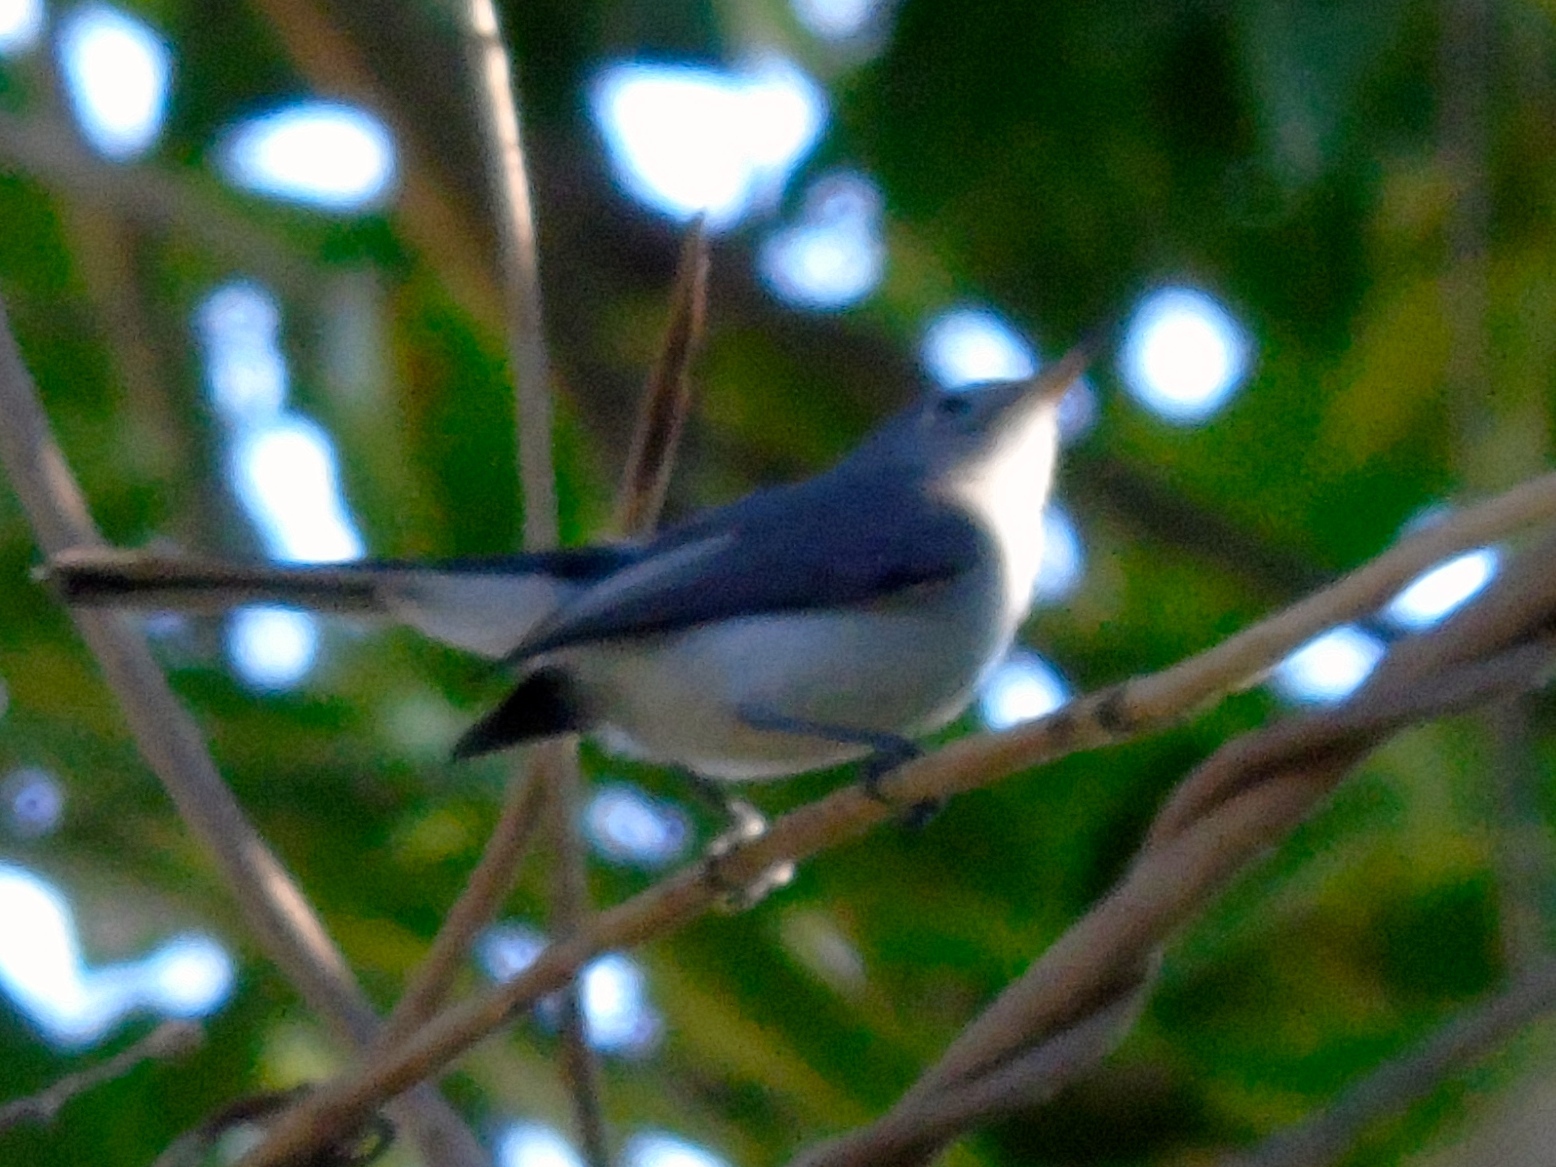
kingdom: Animalia
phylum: Chordata
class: Aves
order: Passeriformes
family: Polioptilidae
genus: Polioptila
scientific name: Polioptila caerulea
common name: Blue-gray gnatcatcher
